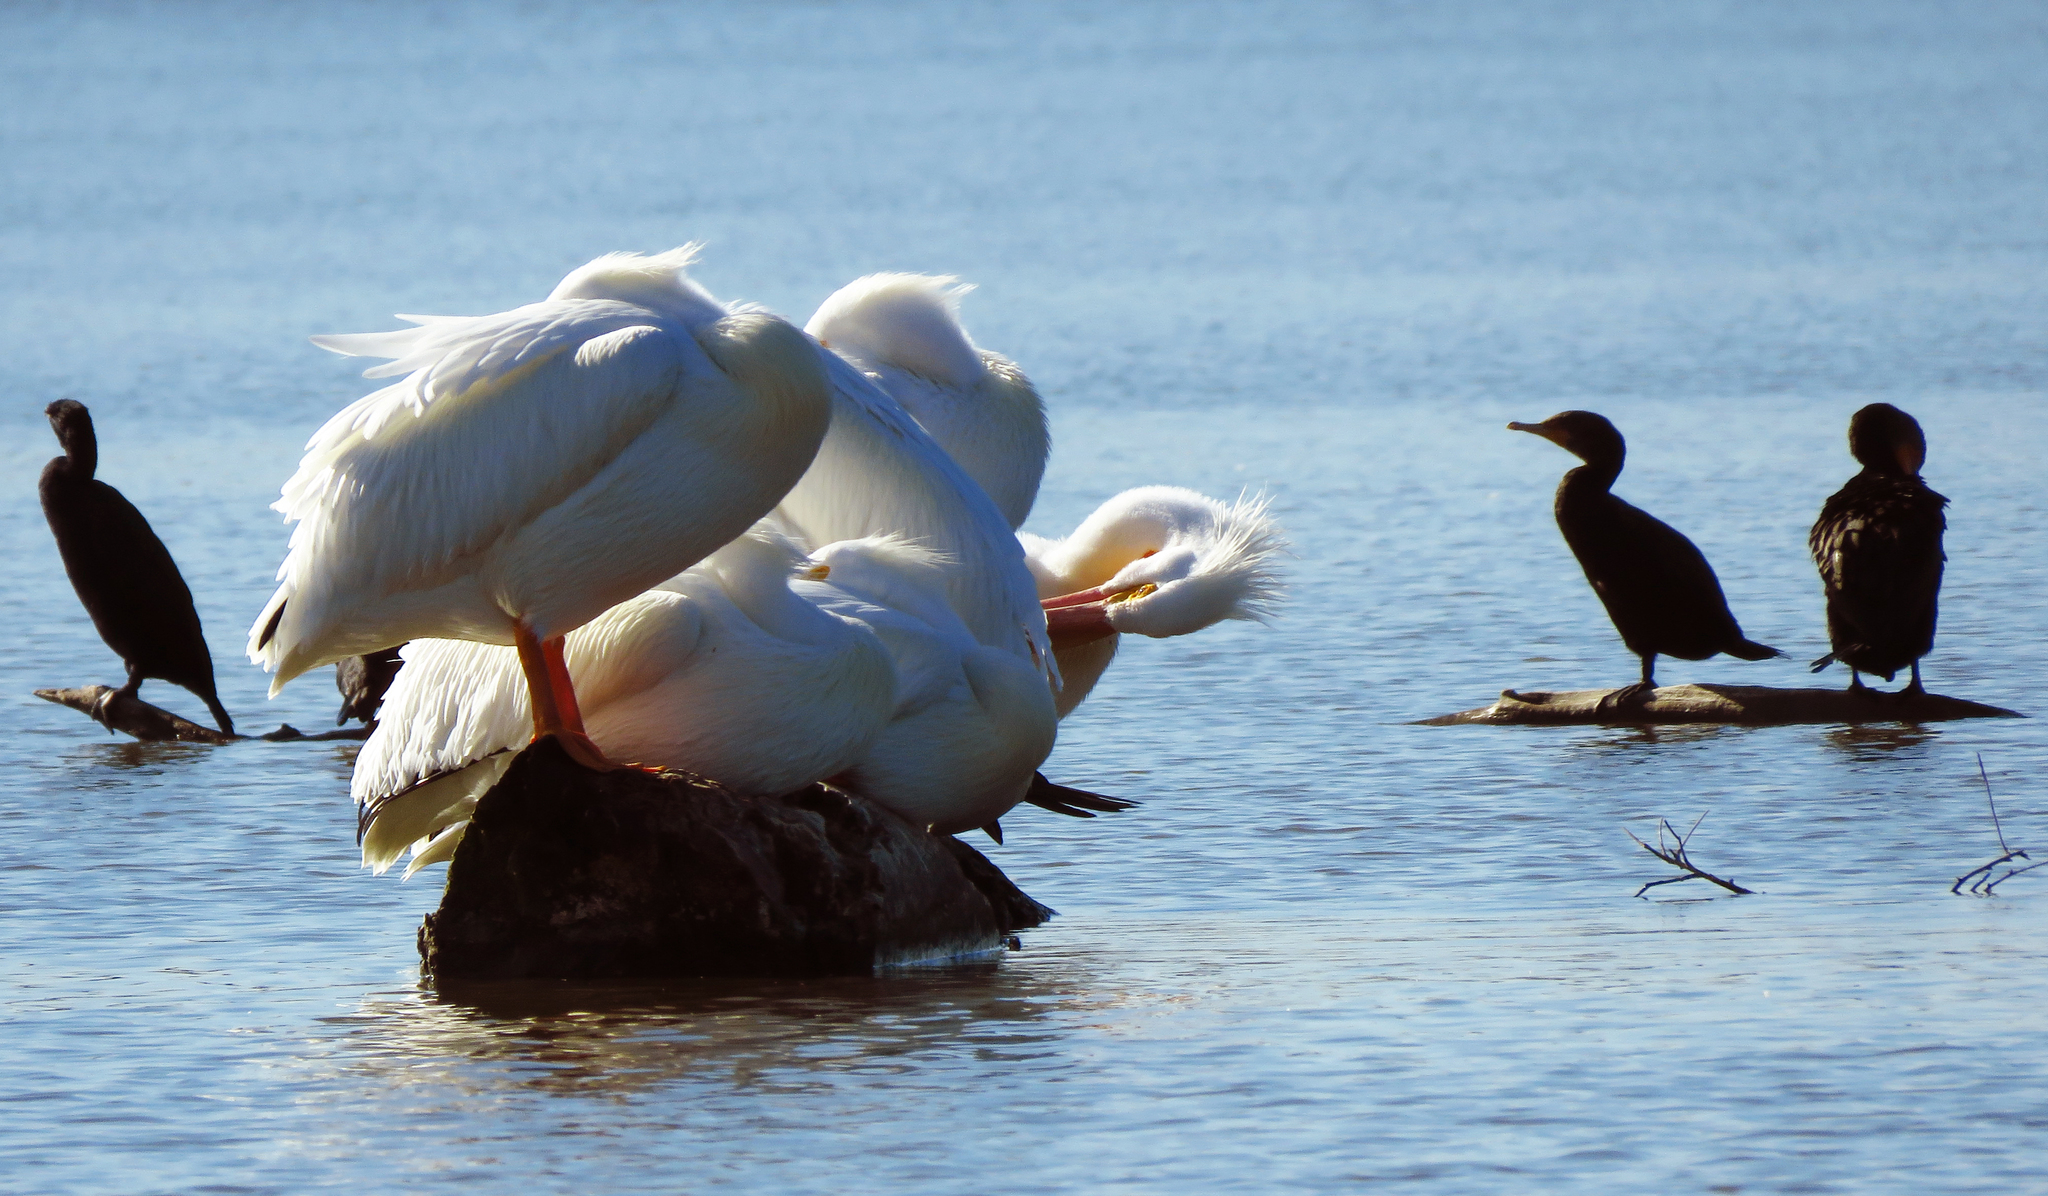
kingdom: Animalia
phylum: Chordata
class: Aves
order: Pelecaniformes
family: Pelecanidae
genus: Pelecanus
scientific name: Pelecanus erythrorhynchos
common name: American white pelican
